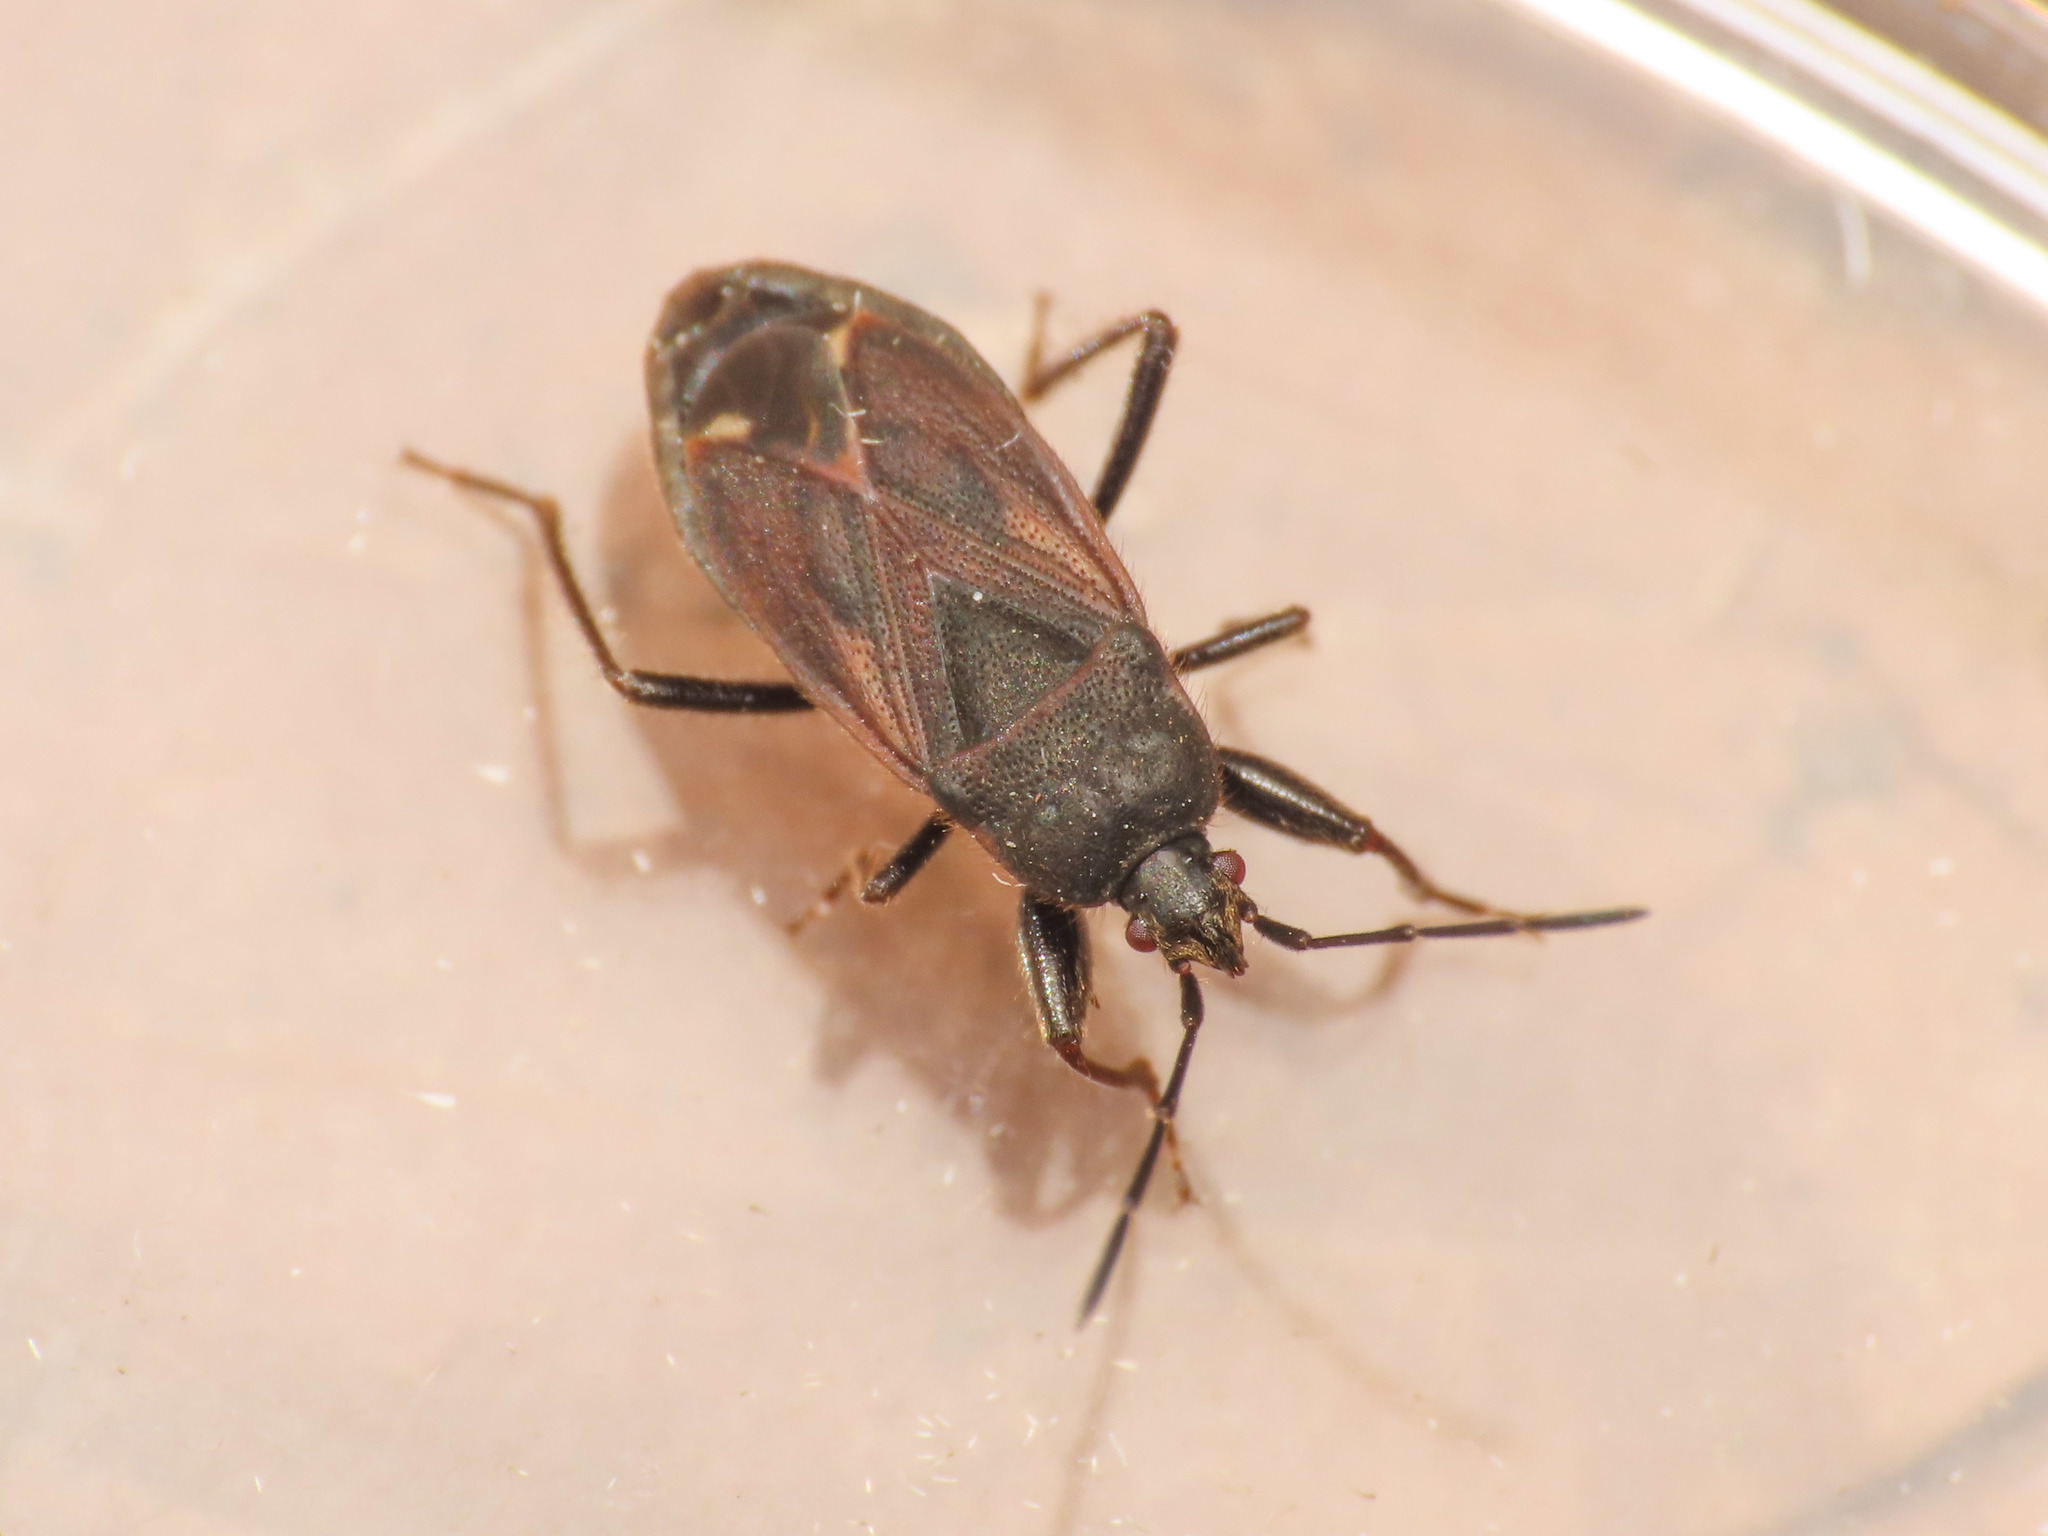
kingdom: Animalia
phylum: Arthropoda
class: Insecta
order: Hemiptera
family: Rhyparochromidae
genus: Eremocoris
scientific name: Eremocoris plebejus
